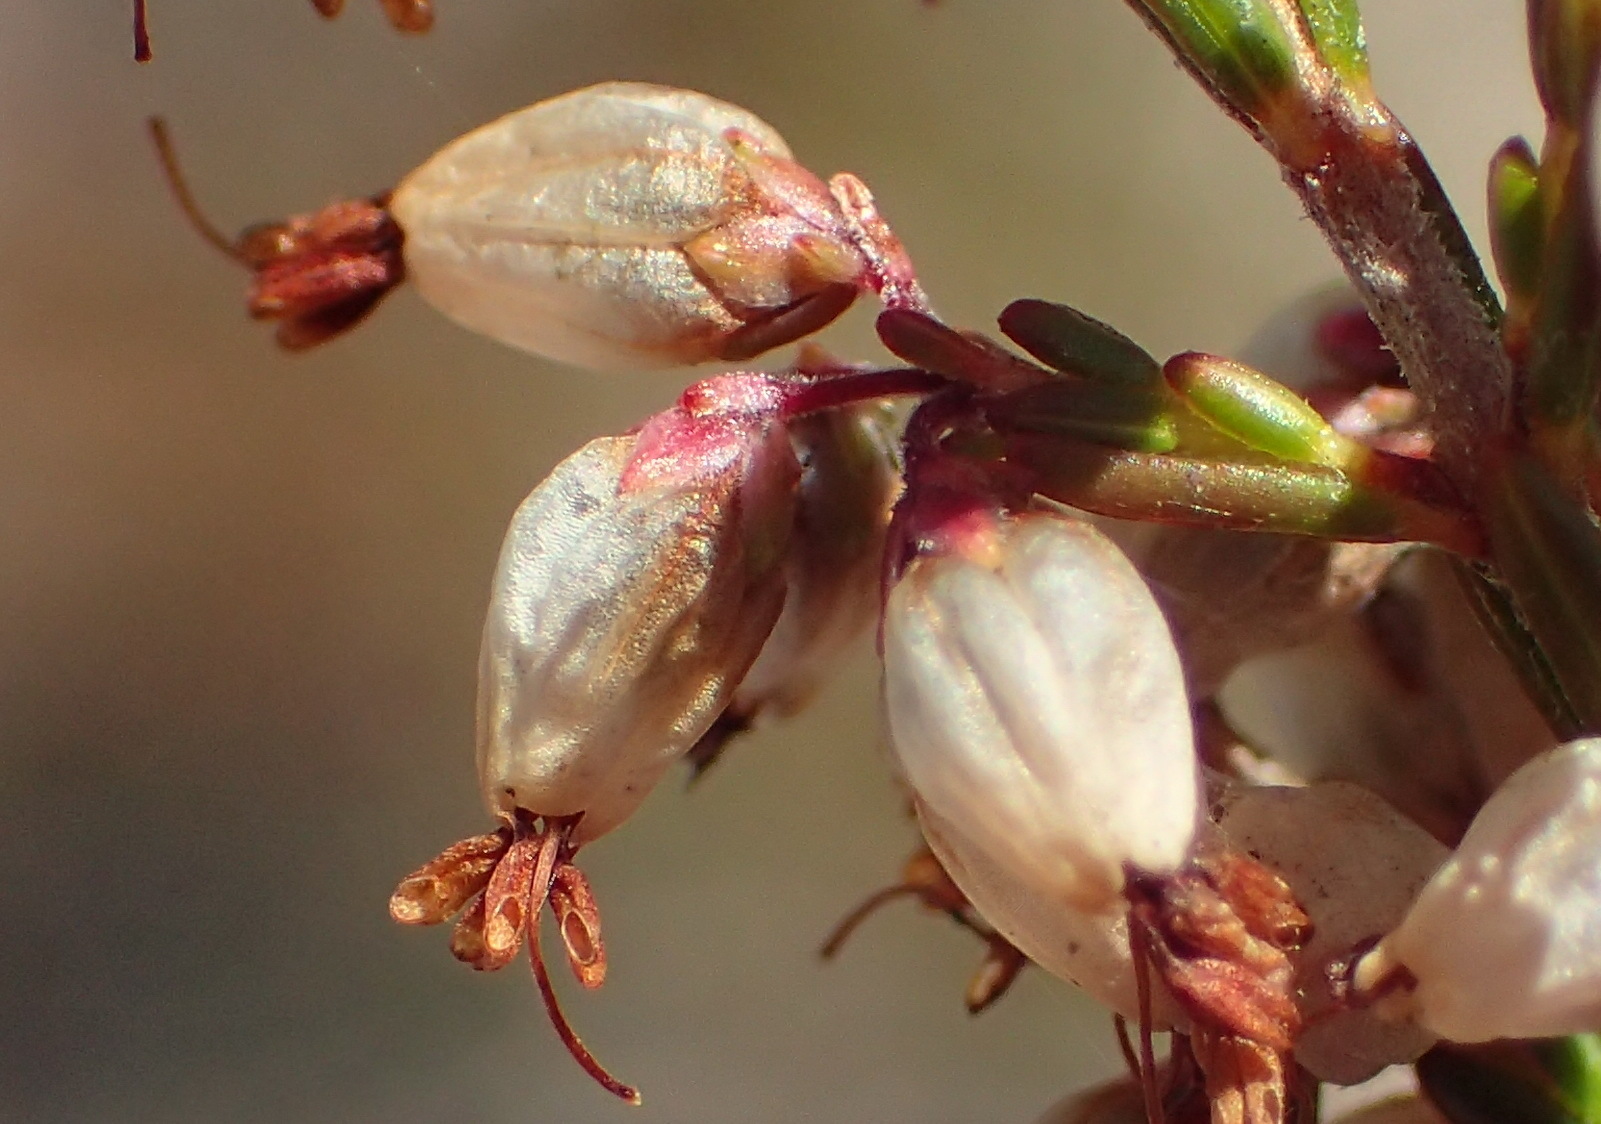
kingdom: Plantae
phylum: Tracheophyta
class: Magnoliopsida
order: Ericales
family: Ericaceae
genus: Erica
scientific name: Erica rosacea
